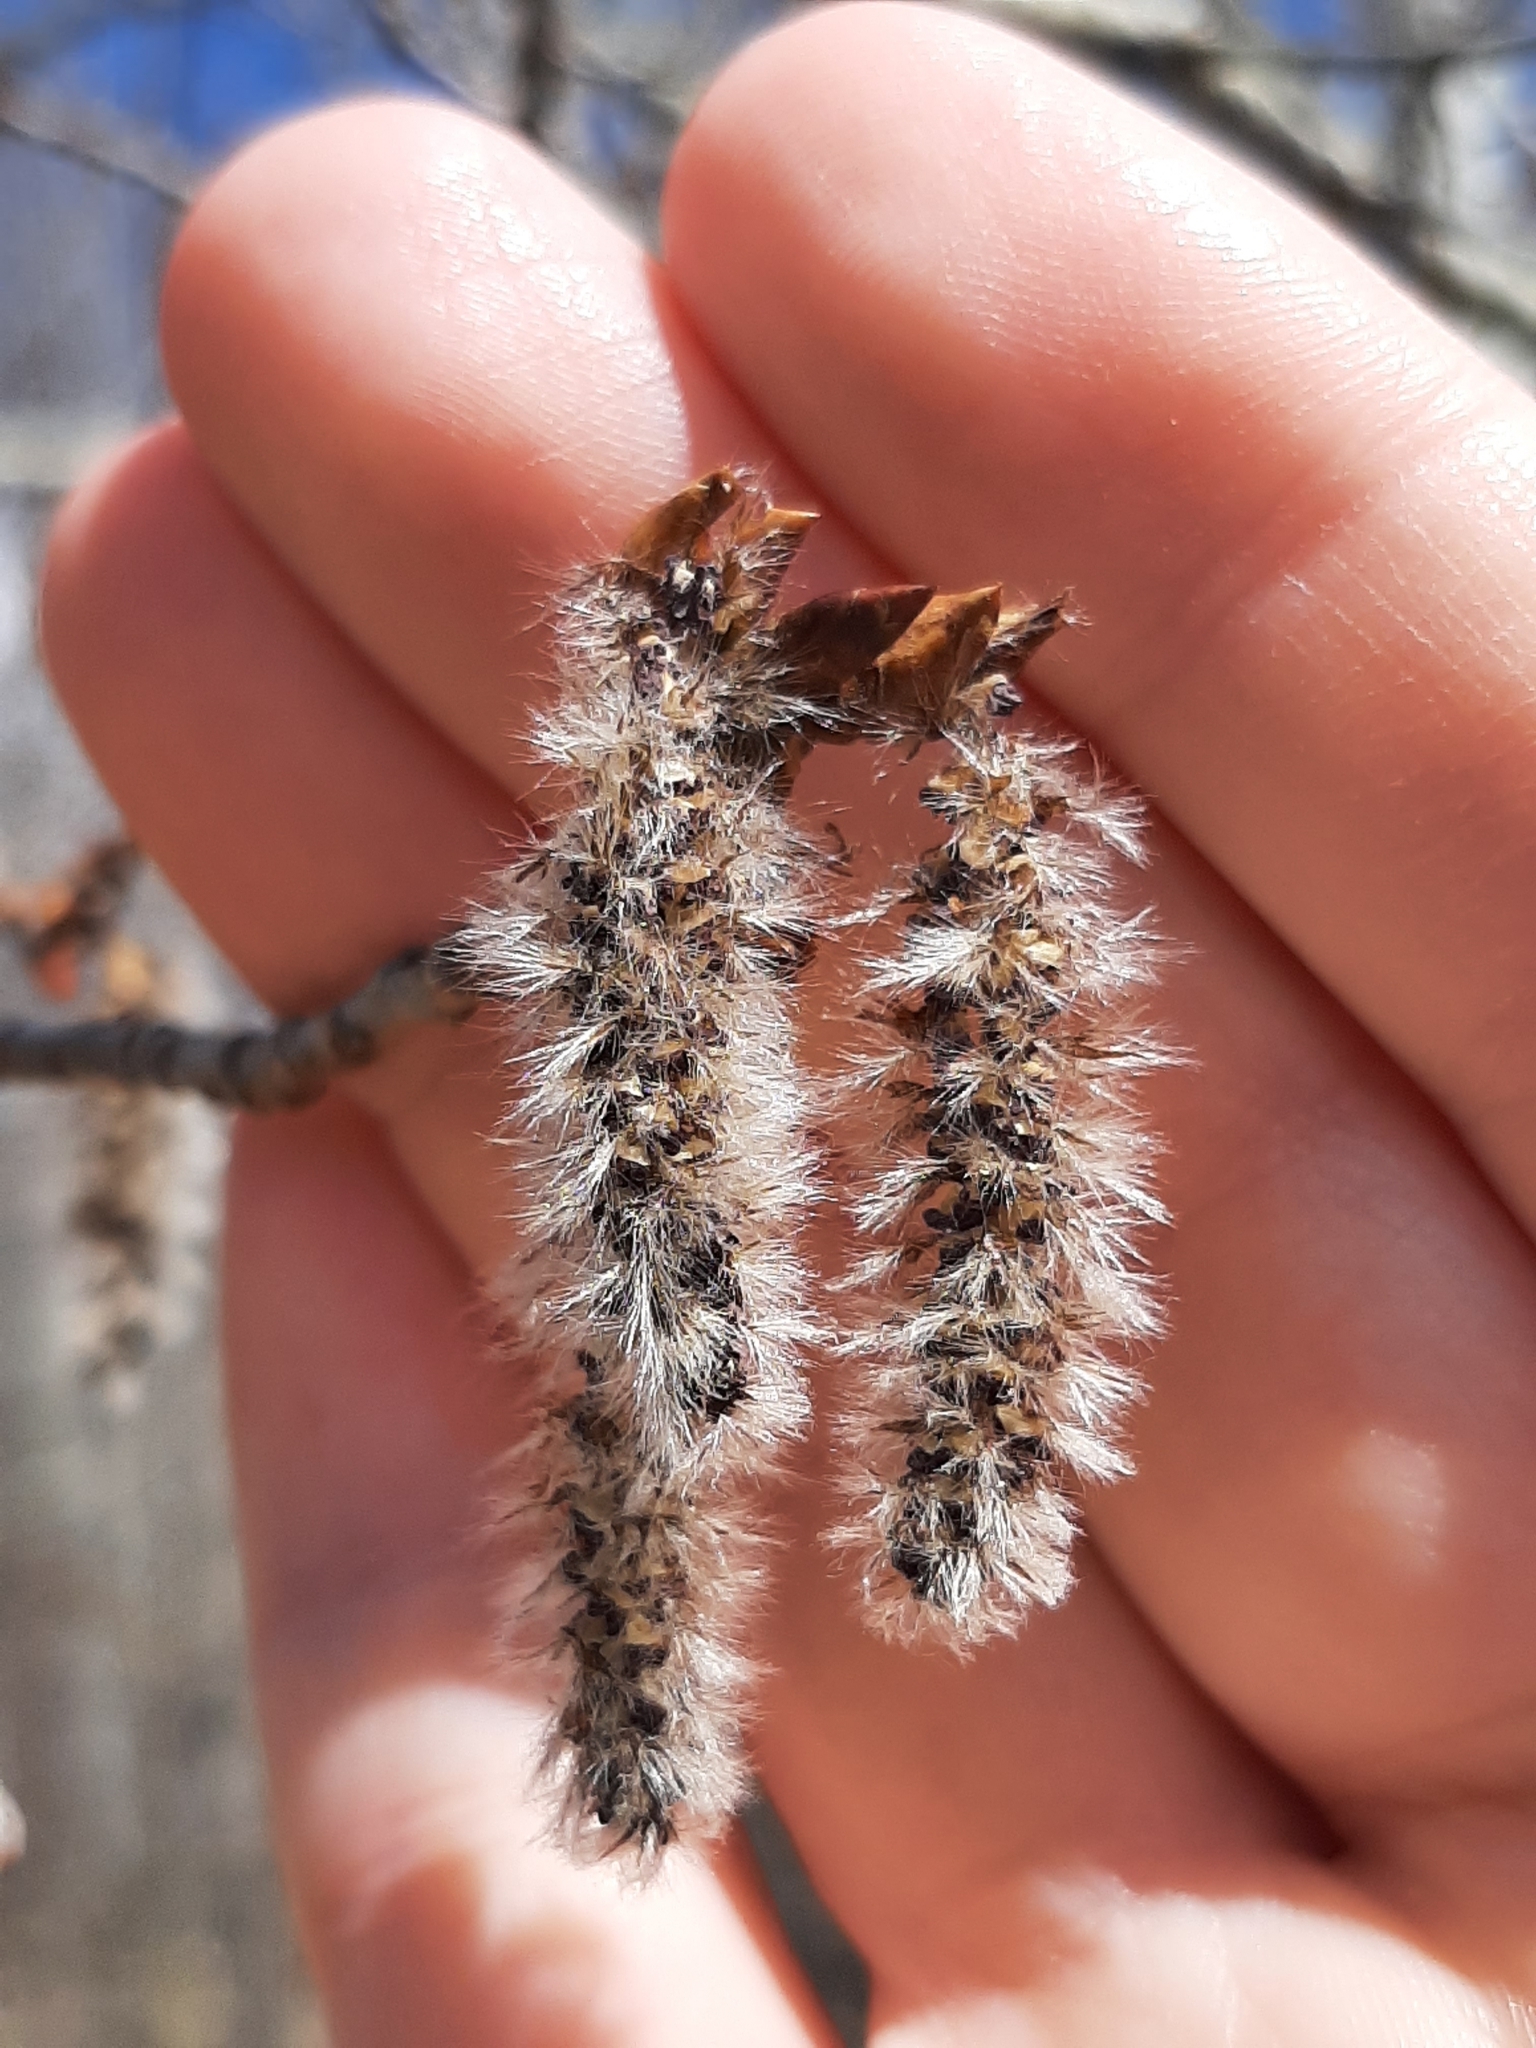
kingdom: Plantae
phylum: Tracheophyta
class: Magnoliopsida
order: Malpighiales
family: Salicaceae
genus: Populus
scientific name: Populus tremuloides
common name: Quaking aspen
